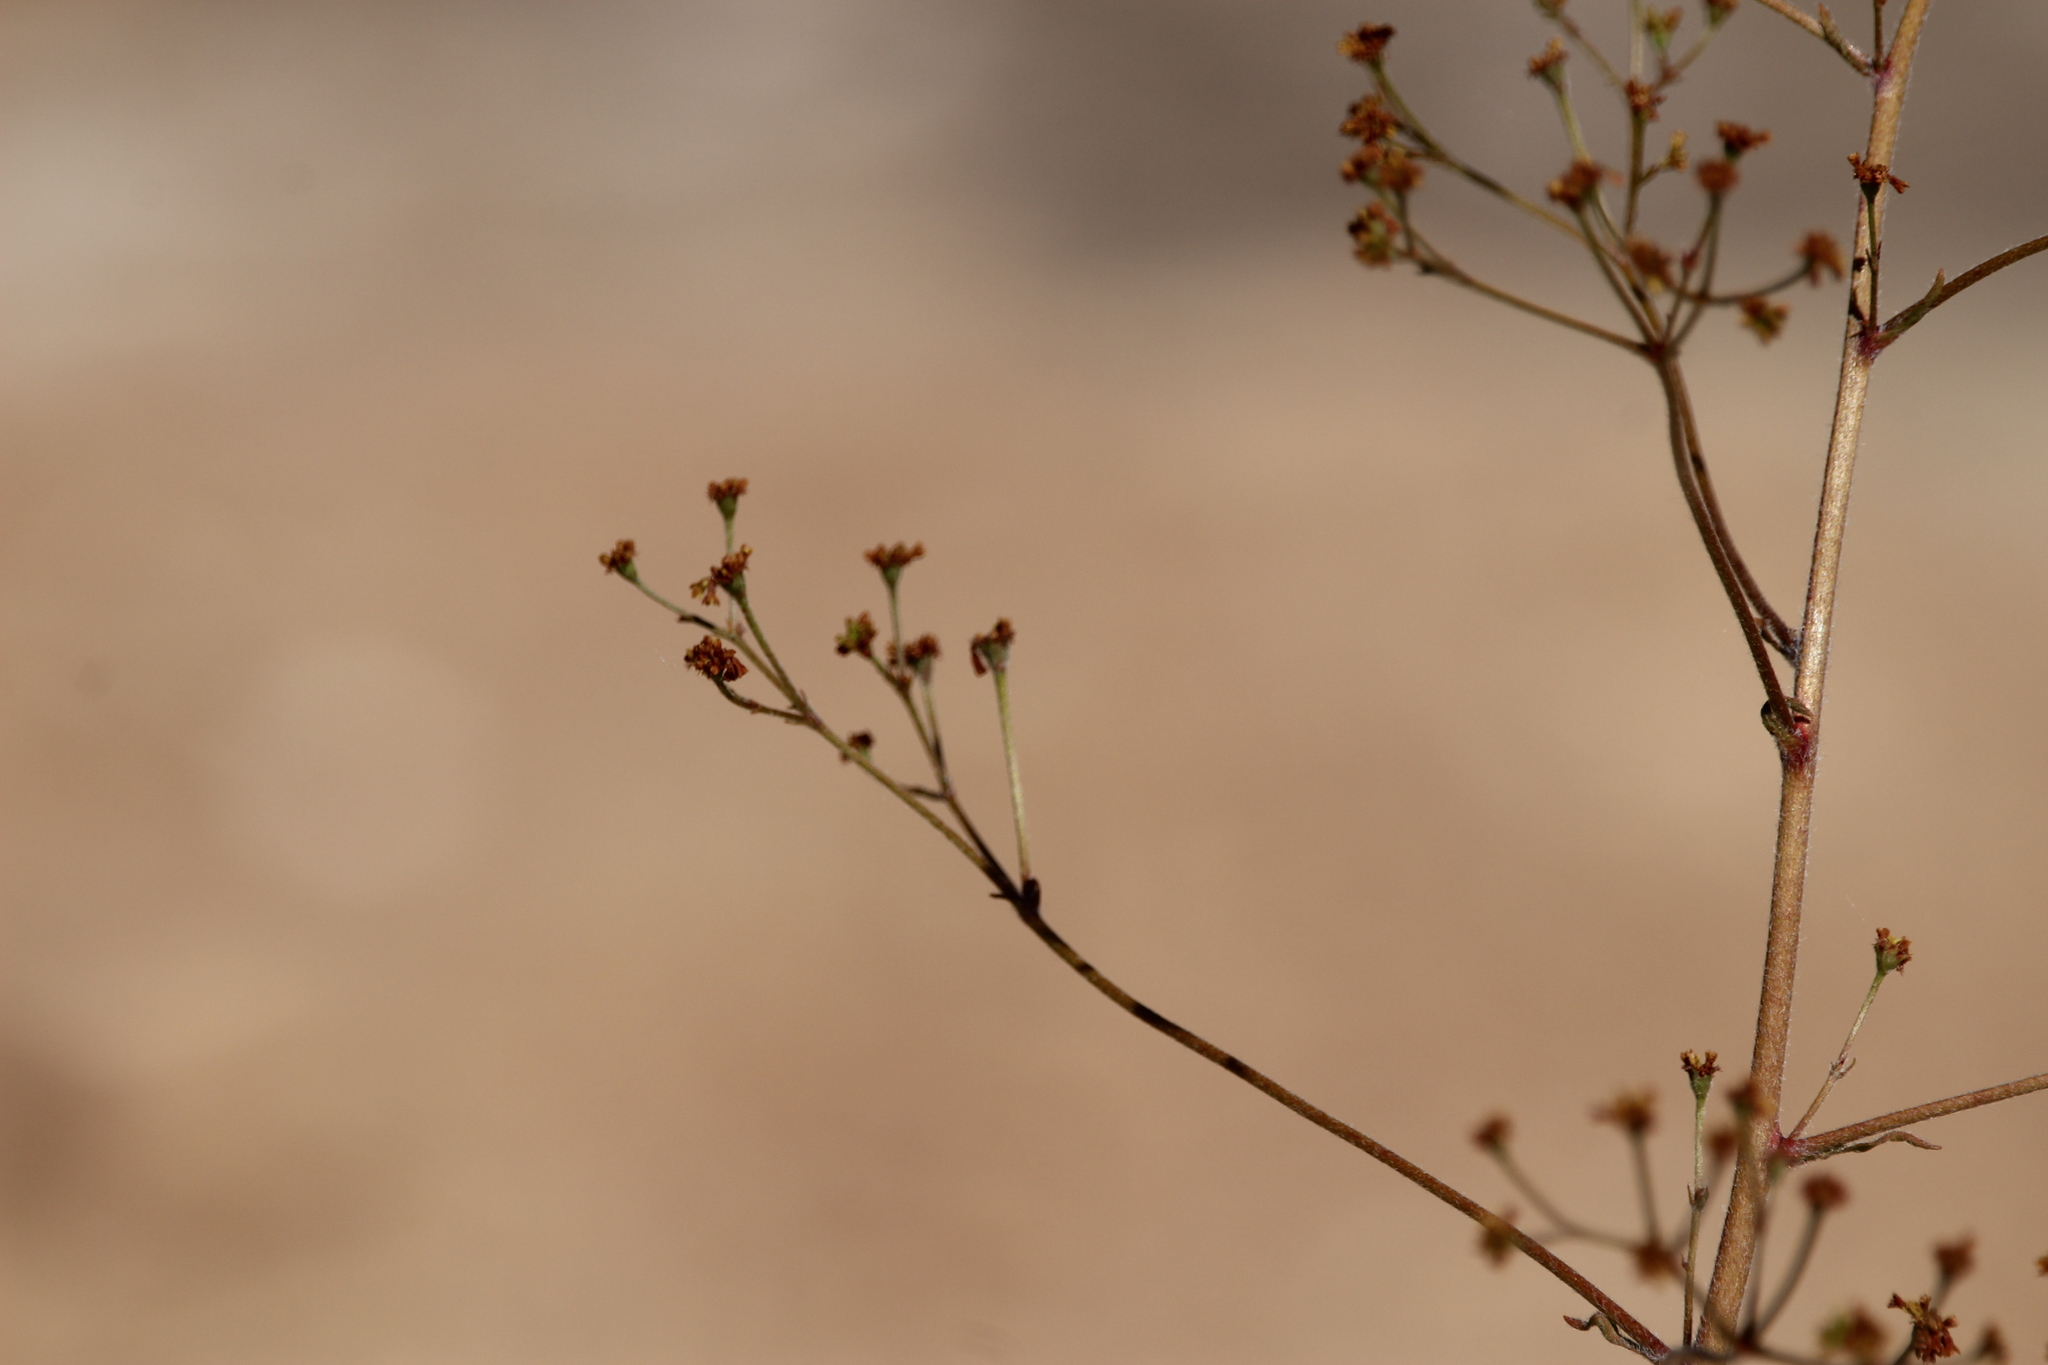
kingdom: Plantae
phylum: Tracheophyta
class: Magnoliopsida
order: Caryophyllales
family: Polygonaceae
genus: Eriogonum
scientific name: Eriogonum alatum
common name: Winged eriogonum
